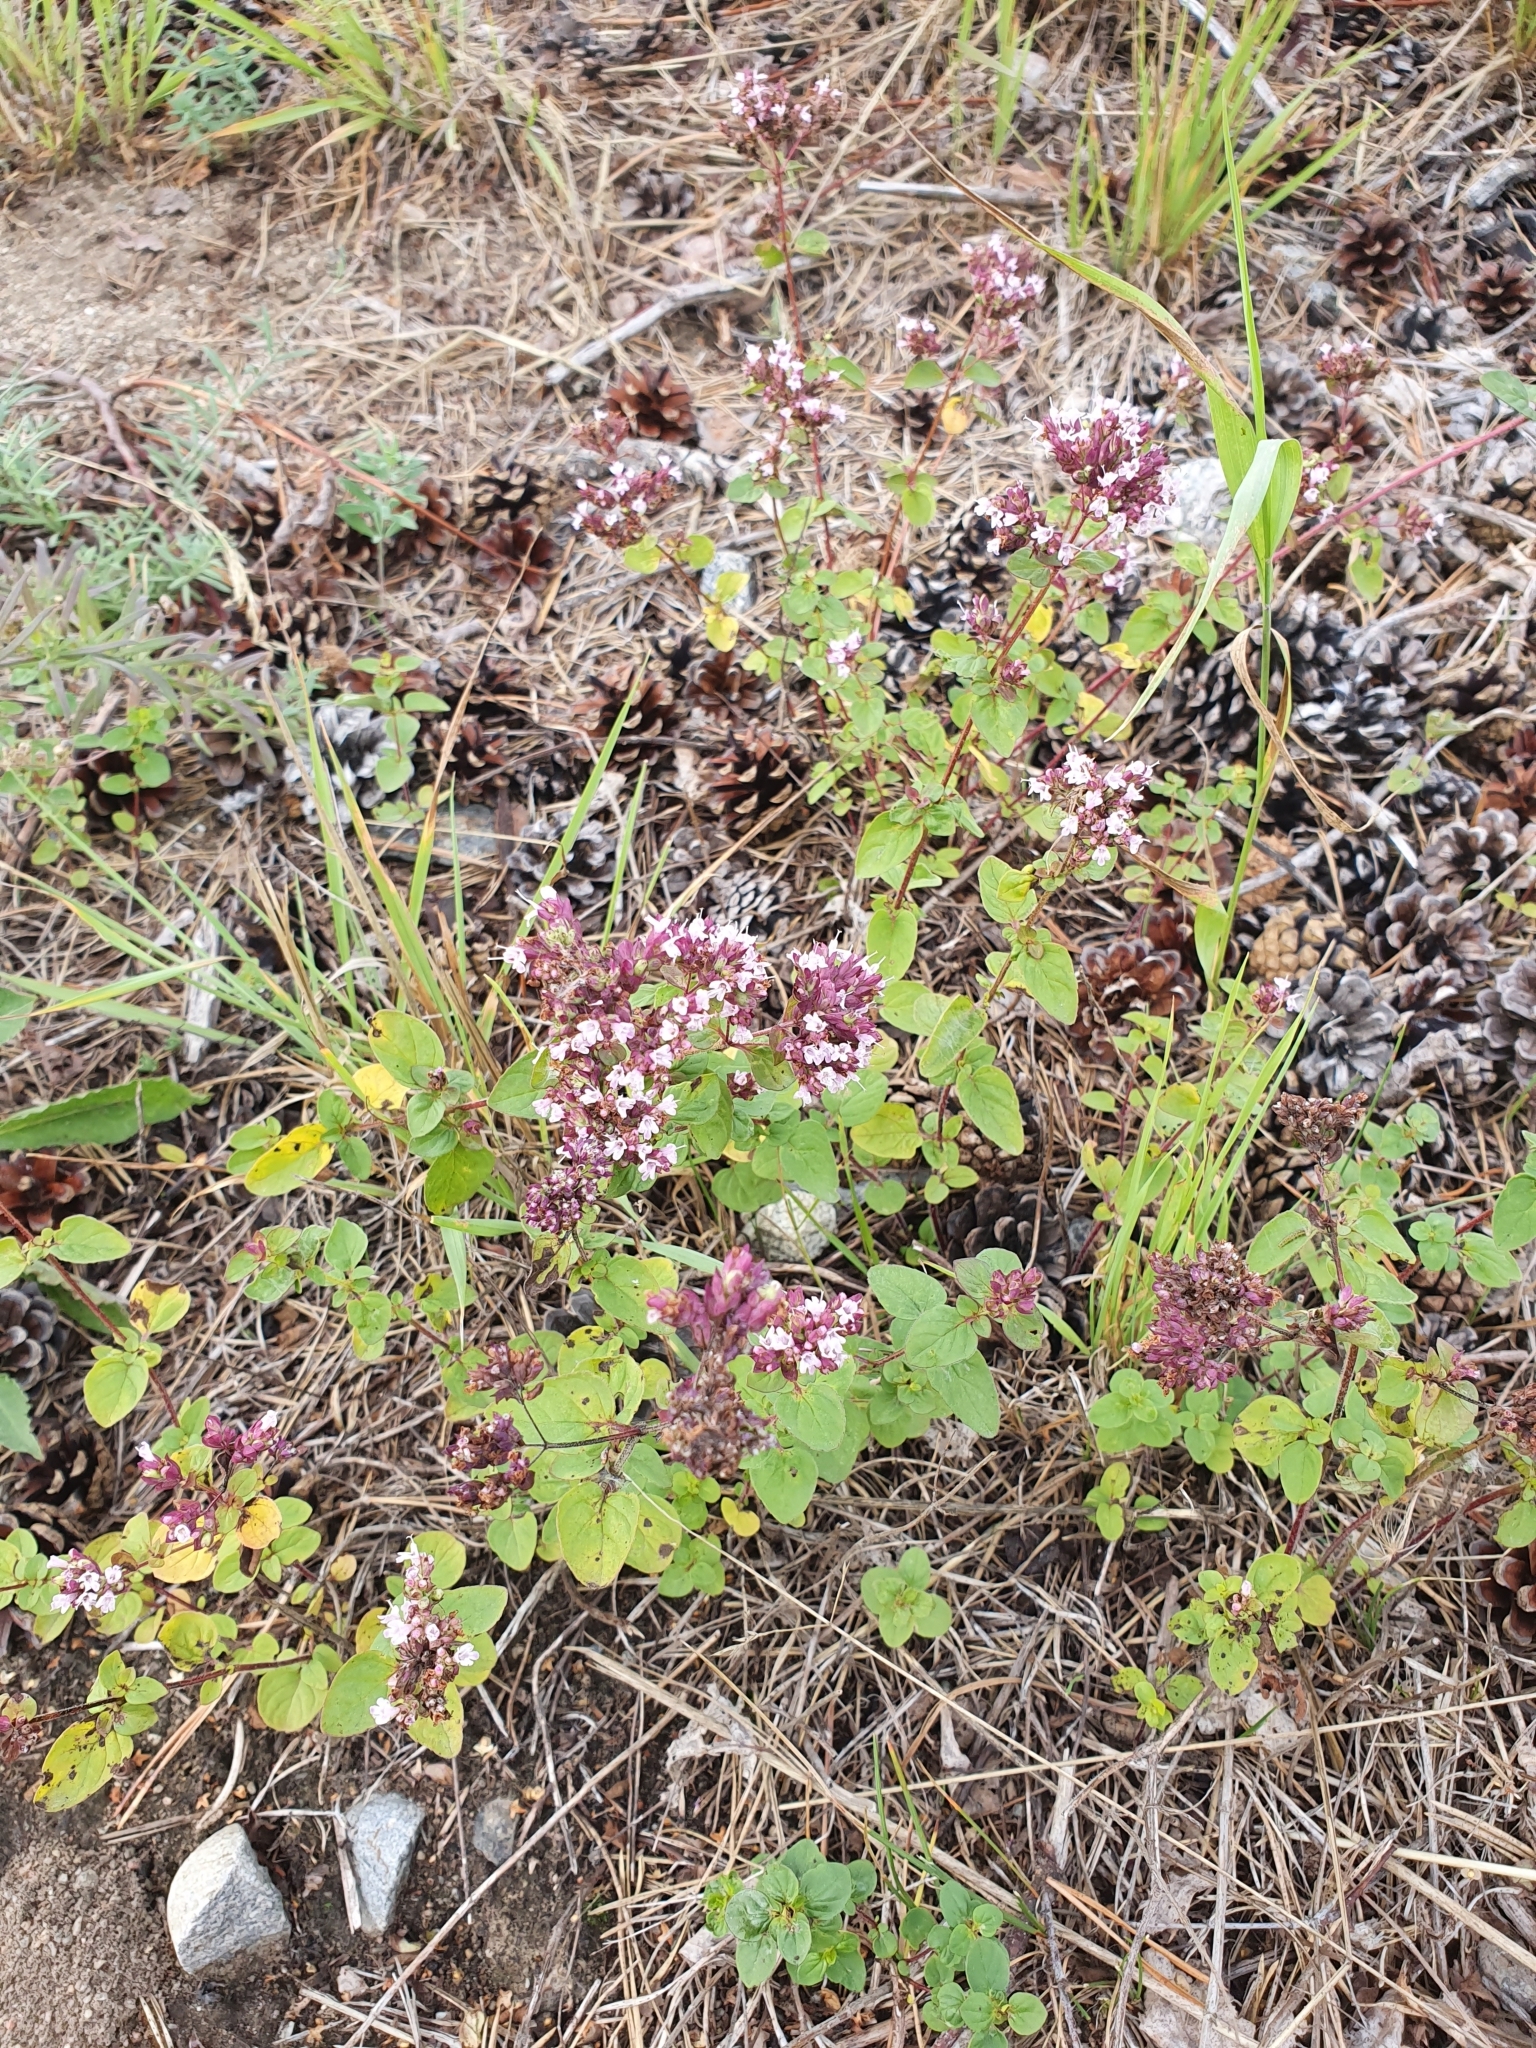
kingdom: Plantae
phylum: Tracheophyta
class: Magnoliopsida
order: Lamiales
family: Lamiaceae
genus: Origanum
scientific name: Origanum vulgare
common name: Wild marjoram
